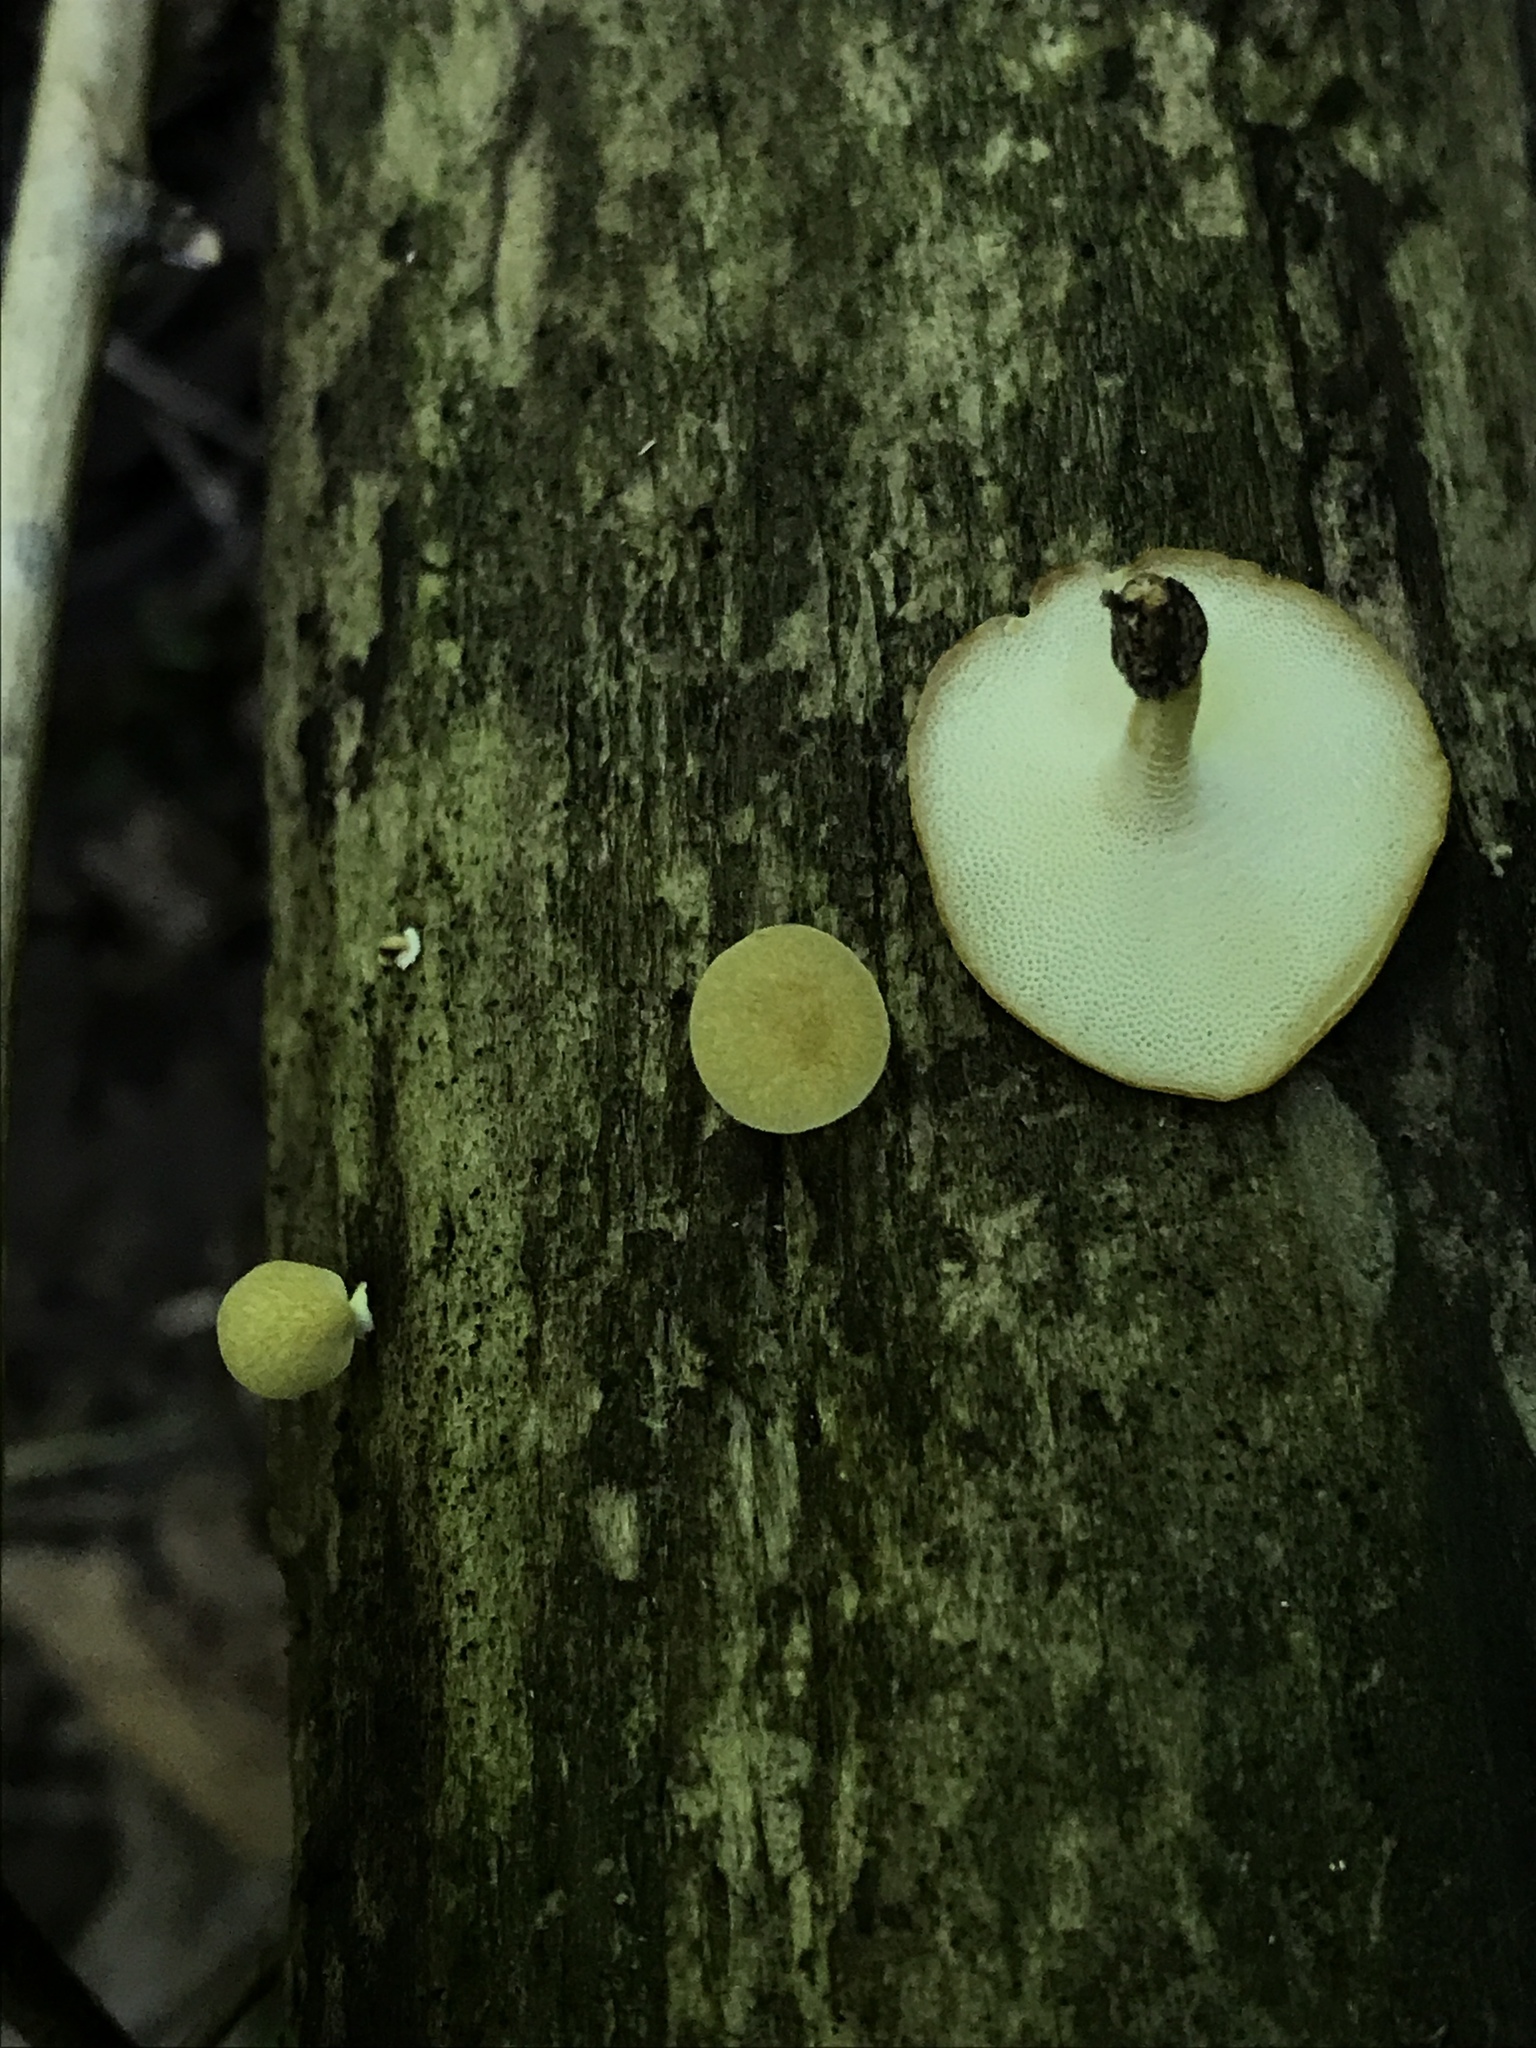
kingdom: Fungi
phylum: Basidiomycota
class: Agaricomycetes
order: Polyporales
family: Polyporaceae
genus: Cerioporus
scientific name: Cerioporus varius
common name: Elegant polypore
